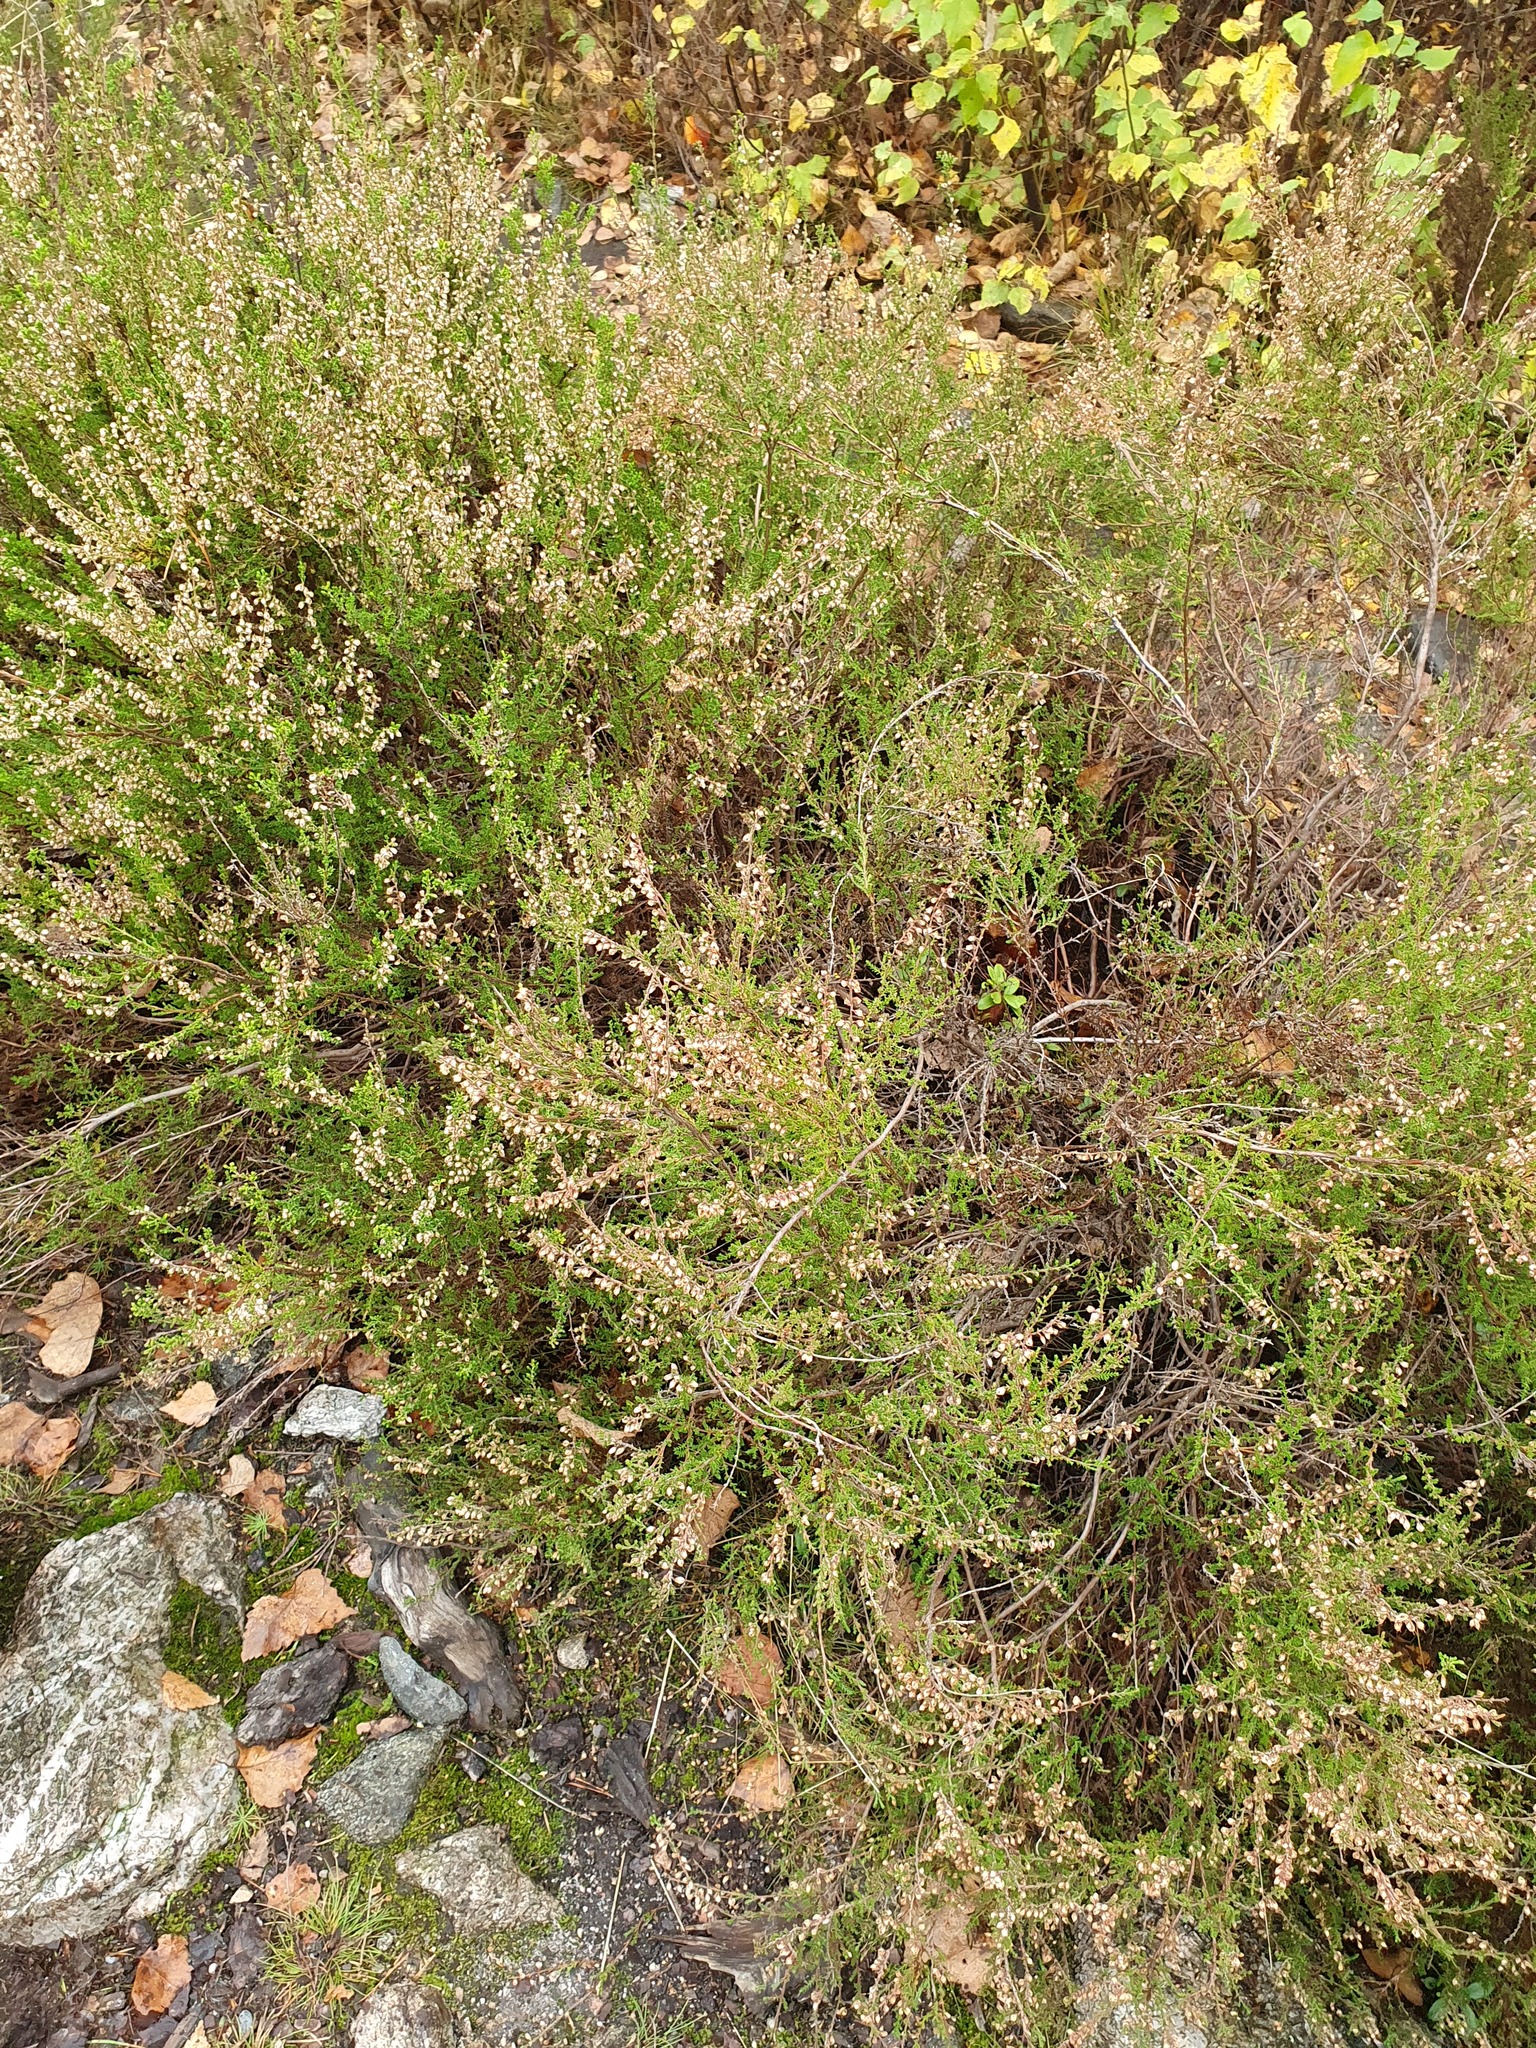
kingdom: Plantae
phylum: Tracheophyta
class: Magnoliopsida
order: Ericales
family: Ericaceae
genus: Calluna
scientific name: Calluna vulgaris
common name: Heather
